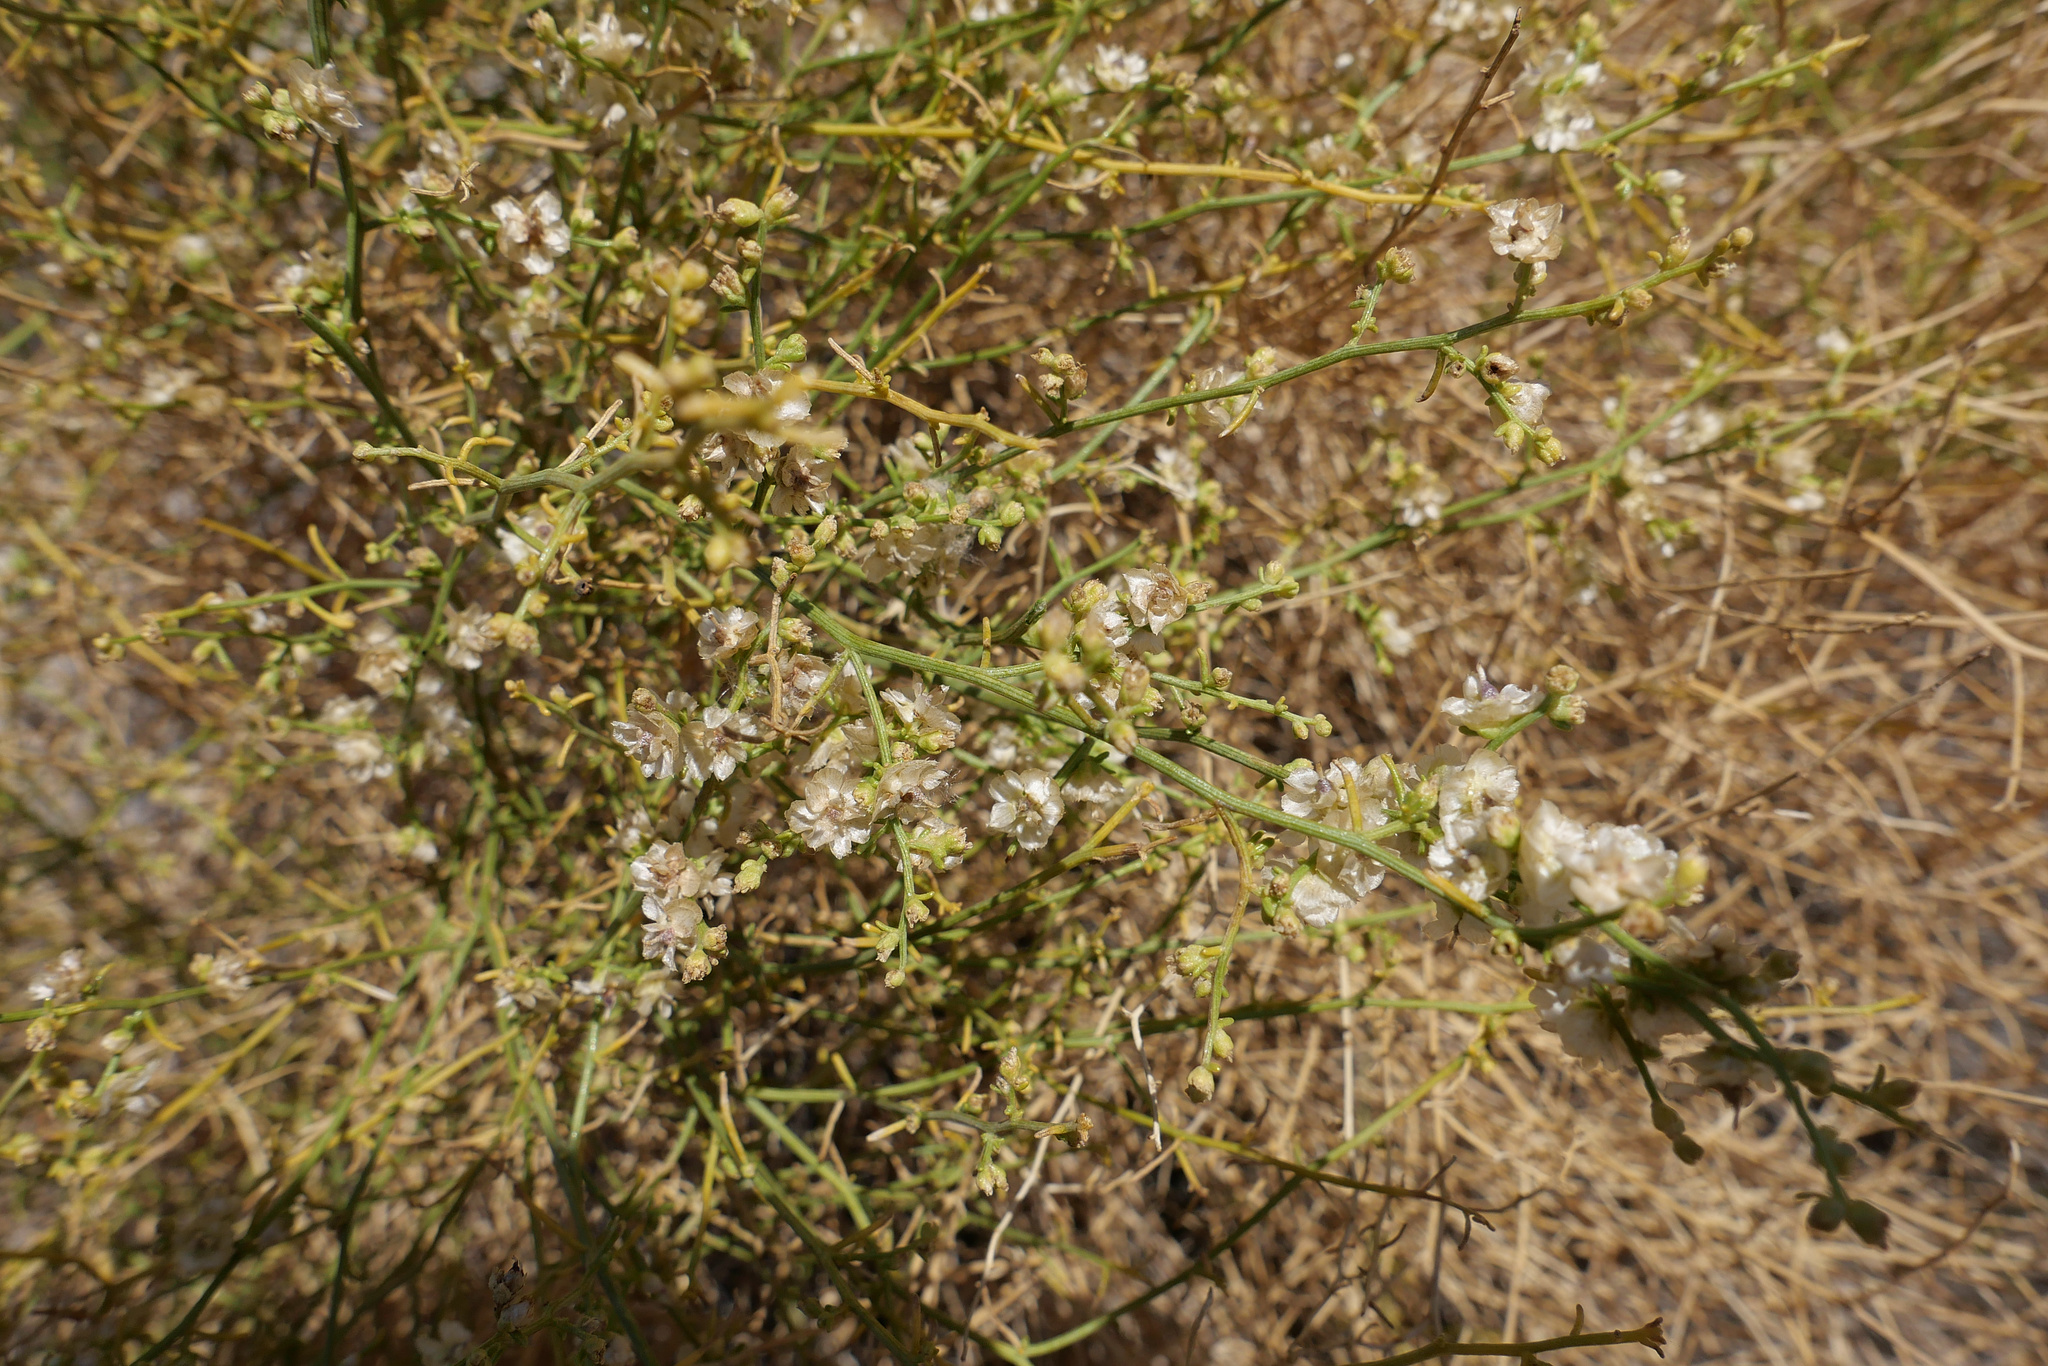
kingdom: Plantae
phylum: Tracheophyta
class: Magnoliopsida
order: Asterales
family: Asteraceae
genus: Ambrosia
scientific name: Ambrosia salsola
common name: Burrobrush
